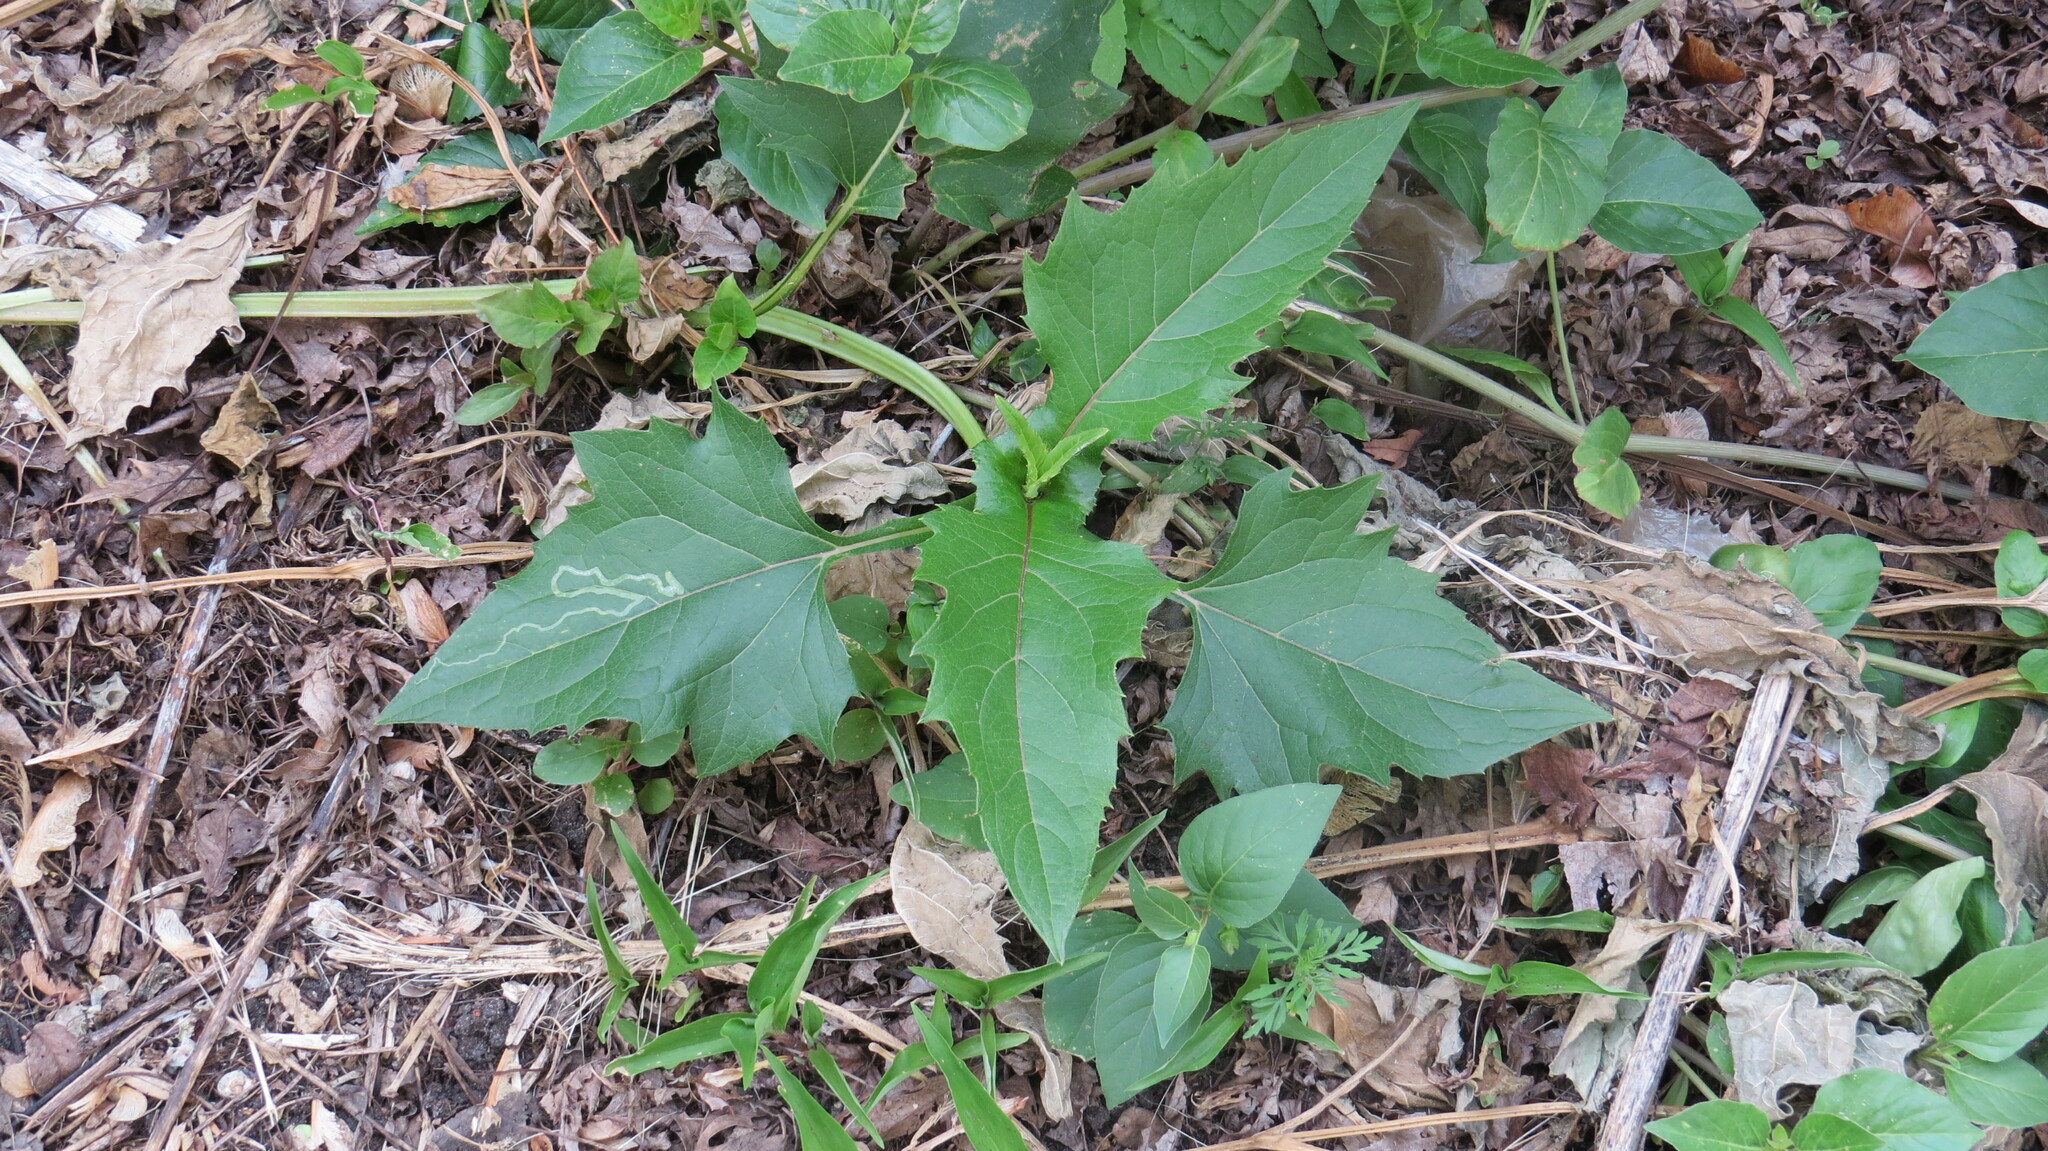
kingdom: Plantae
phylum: Tracheophyta
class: Magnoliopsida
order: Asterales
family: Asteraceae
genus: Silphium
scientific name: Silphium perfoliatum
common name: Cup-plant
